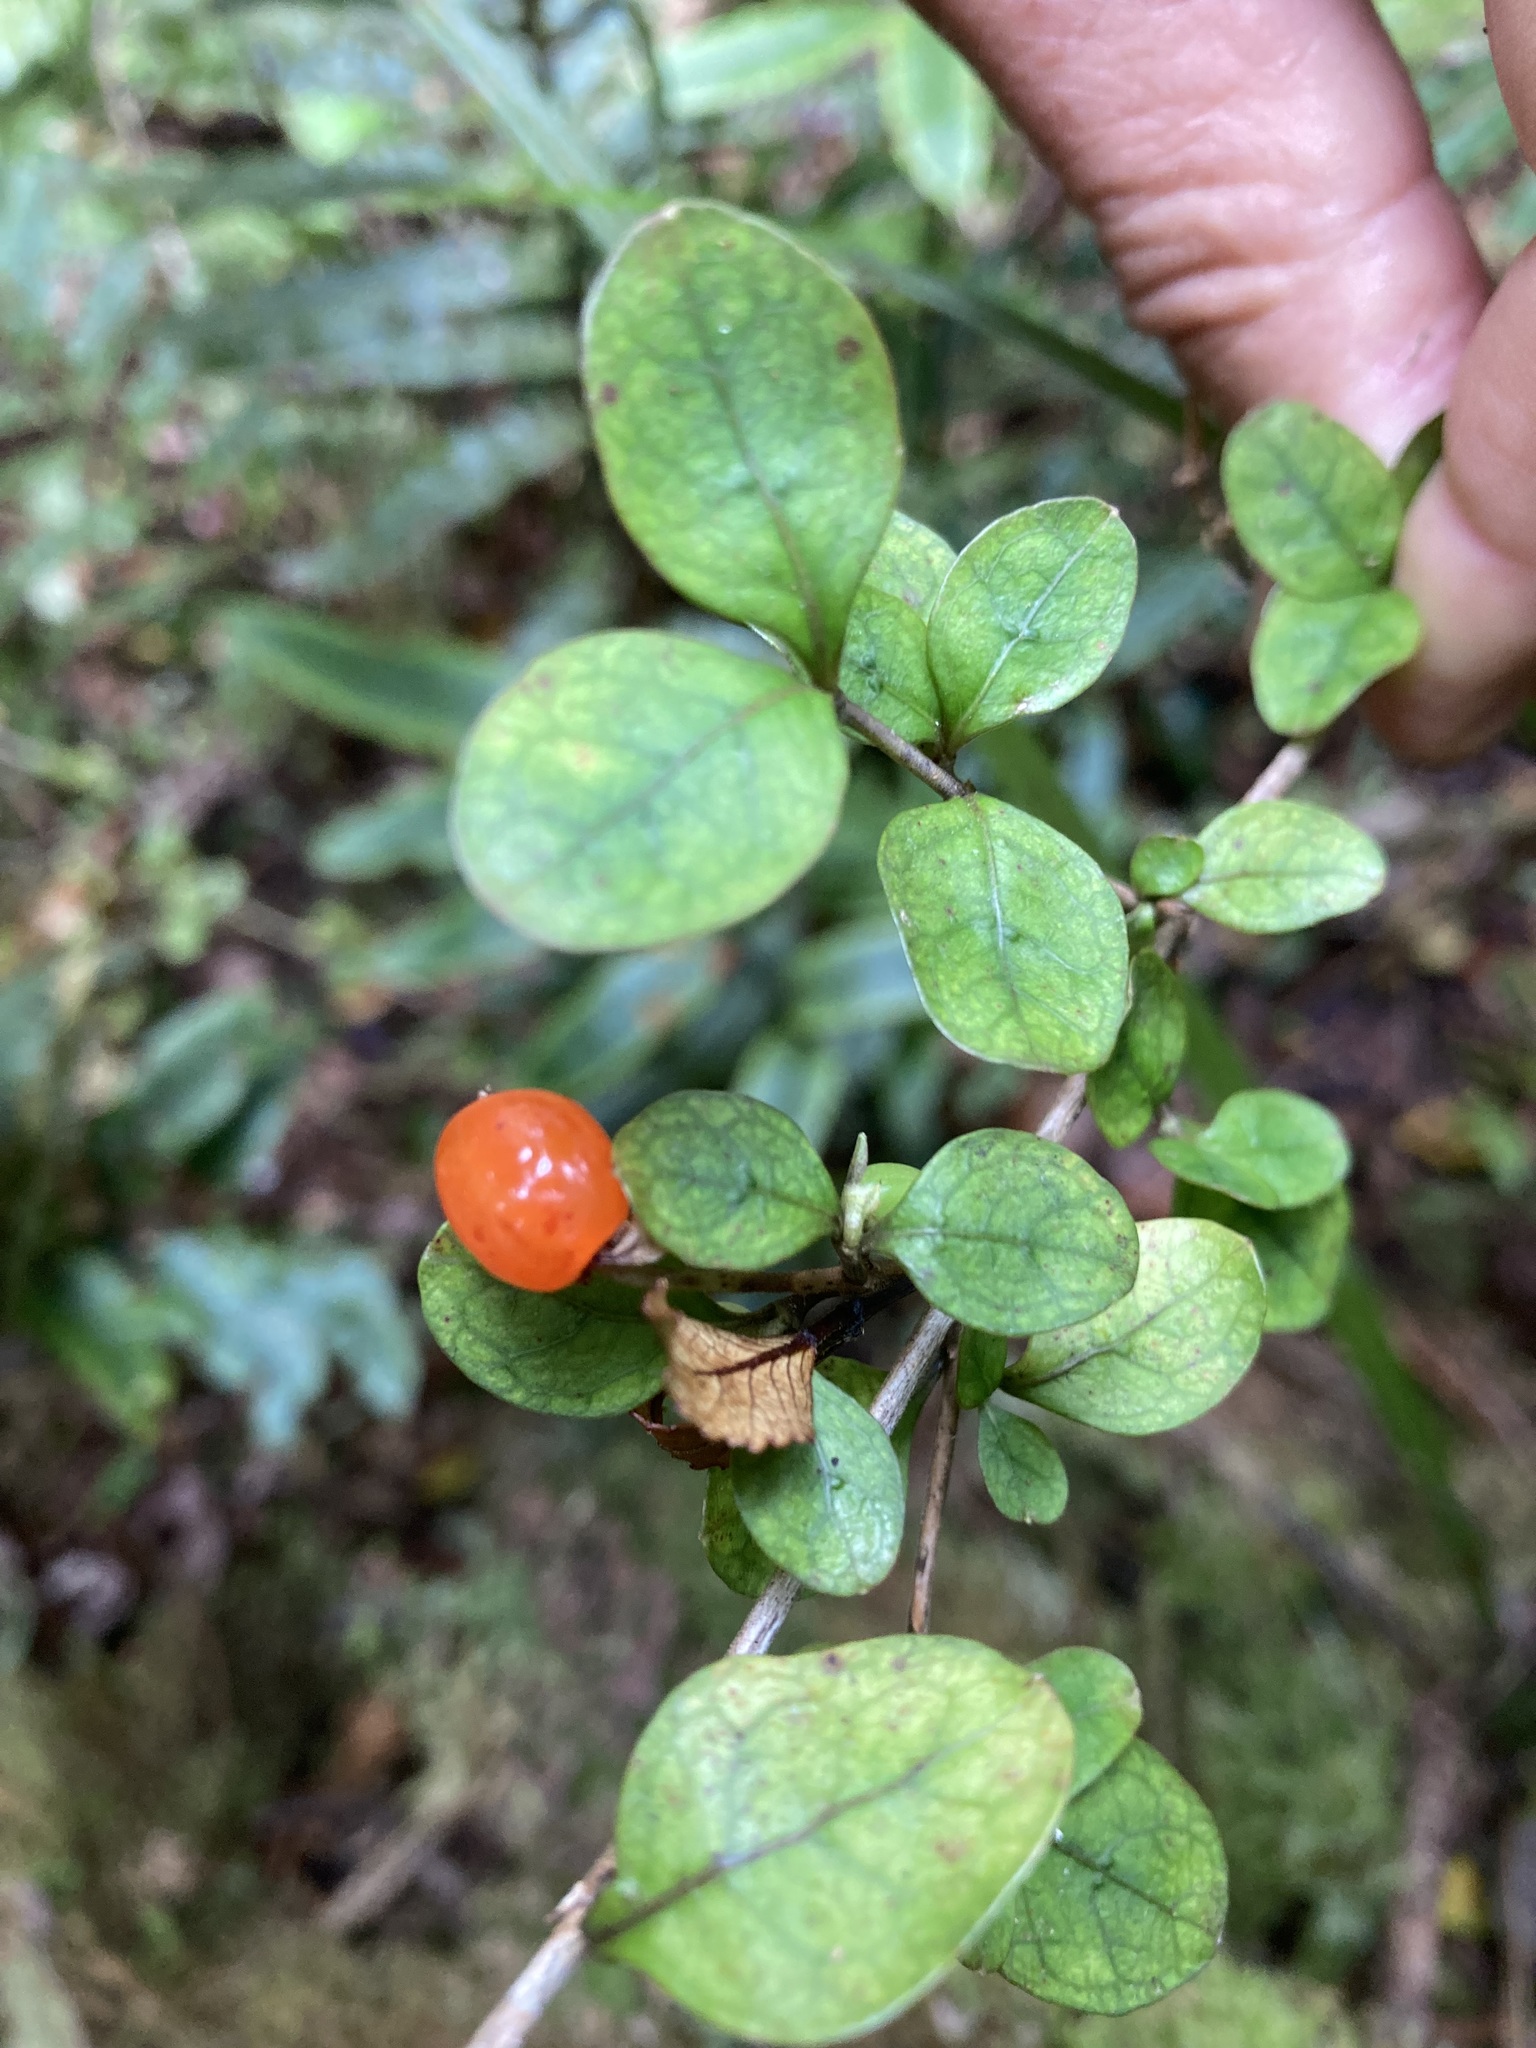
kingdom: Plantae
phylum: Tracheophyta
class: Magnoliopsida
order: Gentianales
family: Rubiaceae
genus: Coprosma
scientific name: Coprosma colensoi
